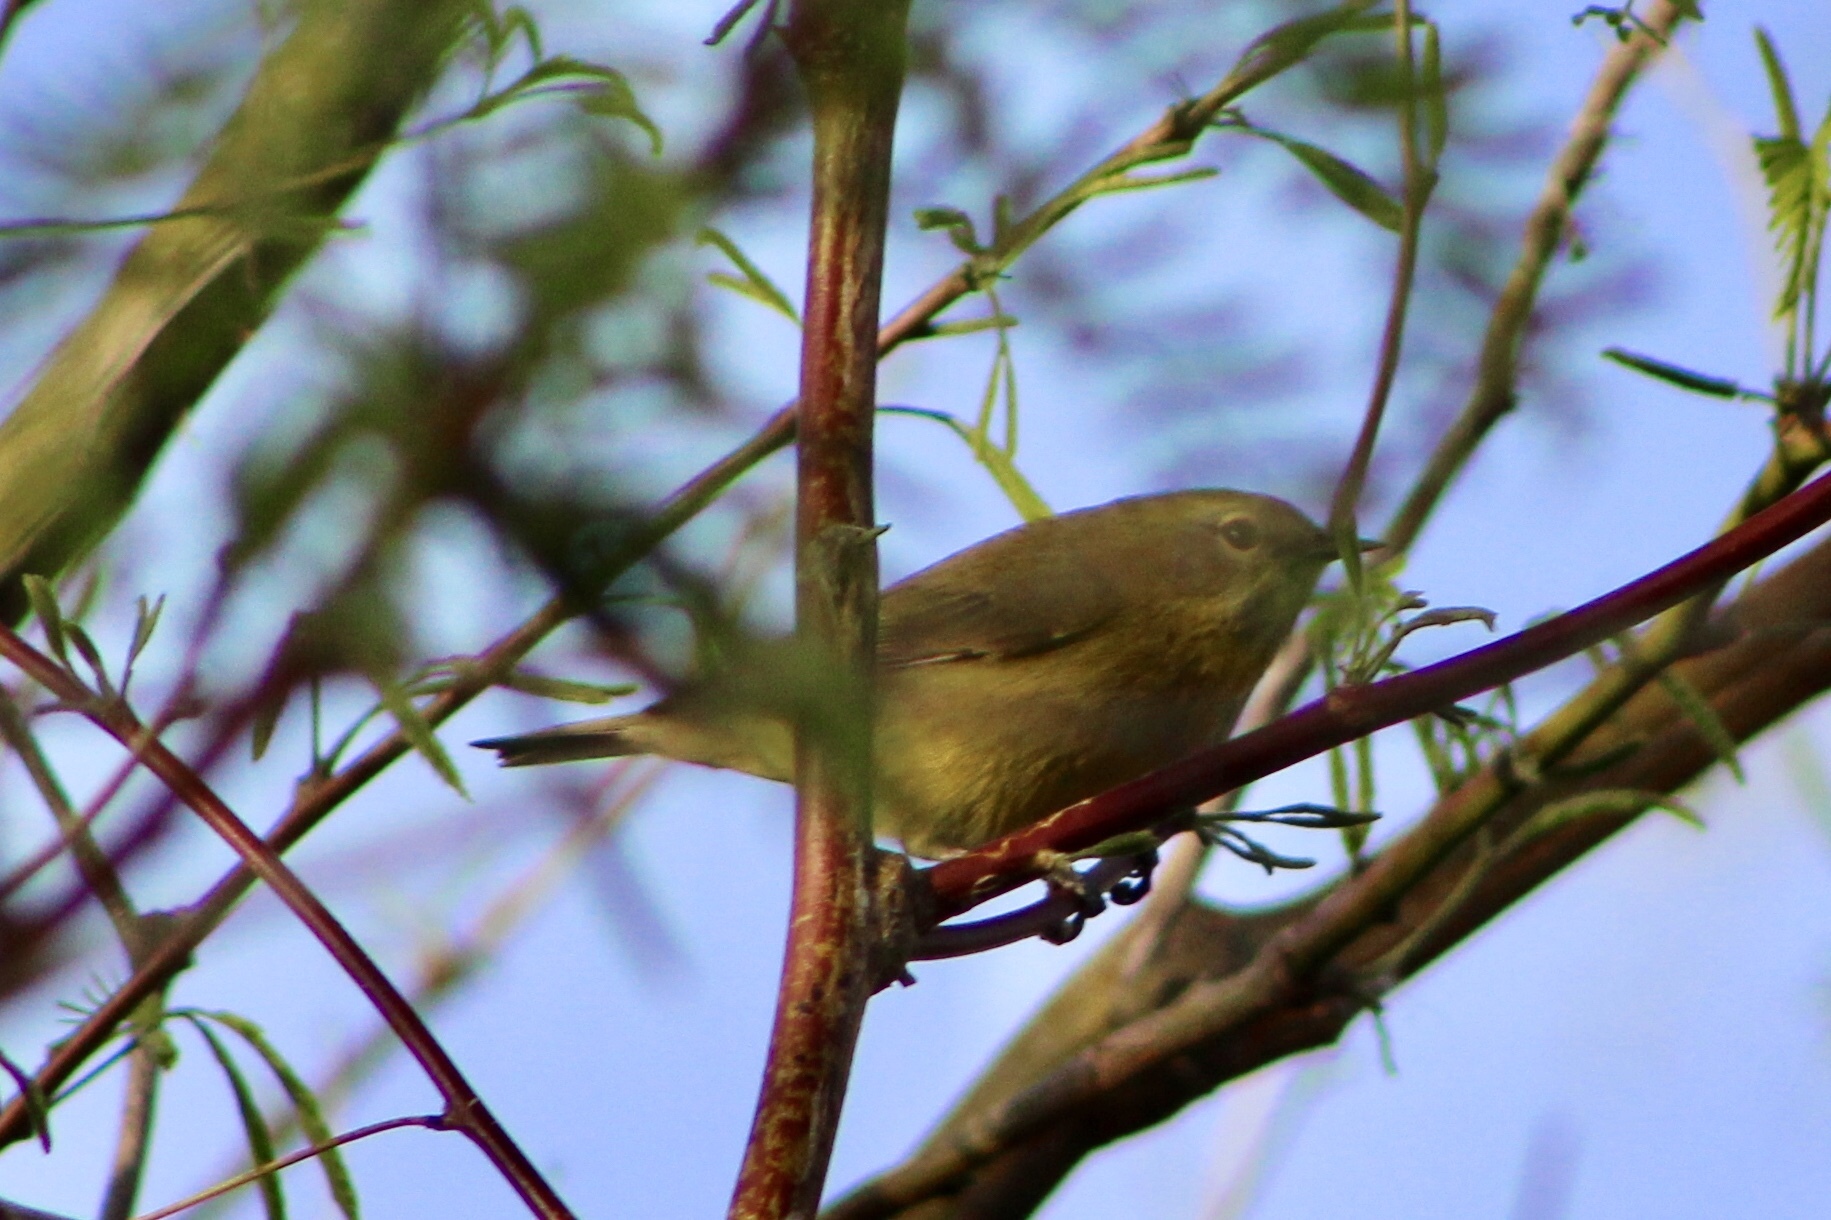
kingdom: Animalia
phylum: Chordata
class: Aves
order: Passeriformes
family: Parulidae
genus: Leiothlypis
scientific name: Leiothlypis celata
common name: Orange-crowned warbler
